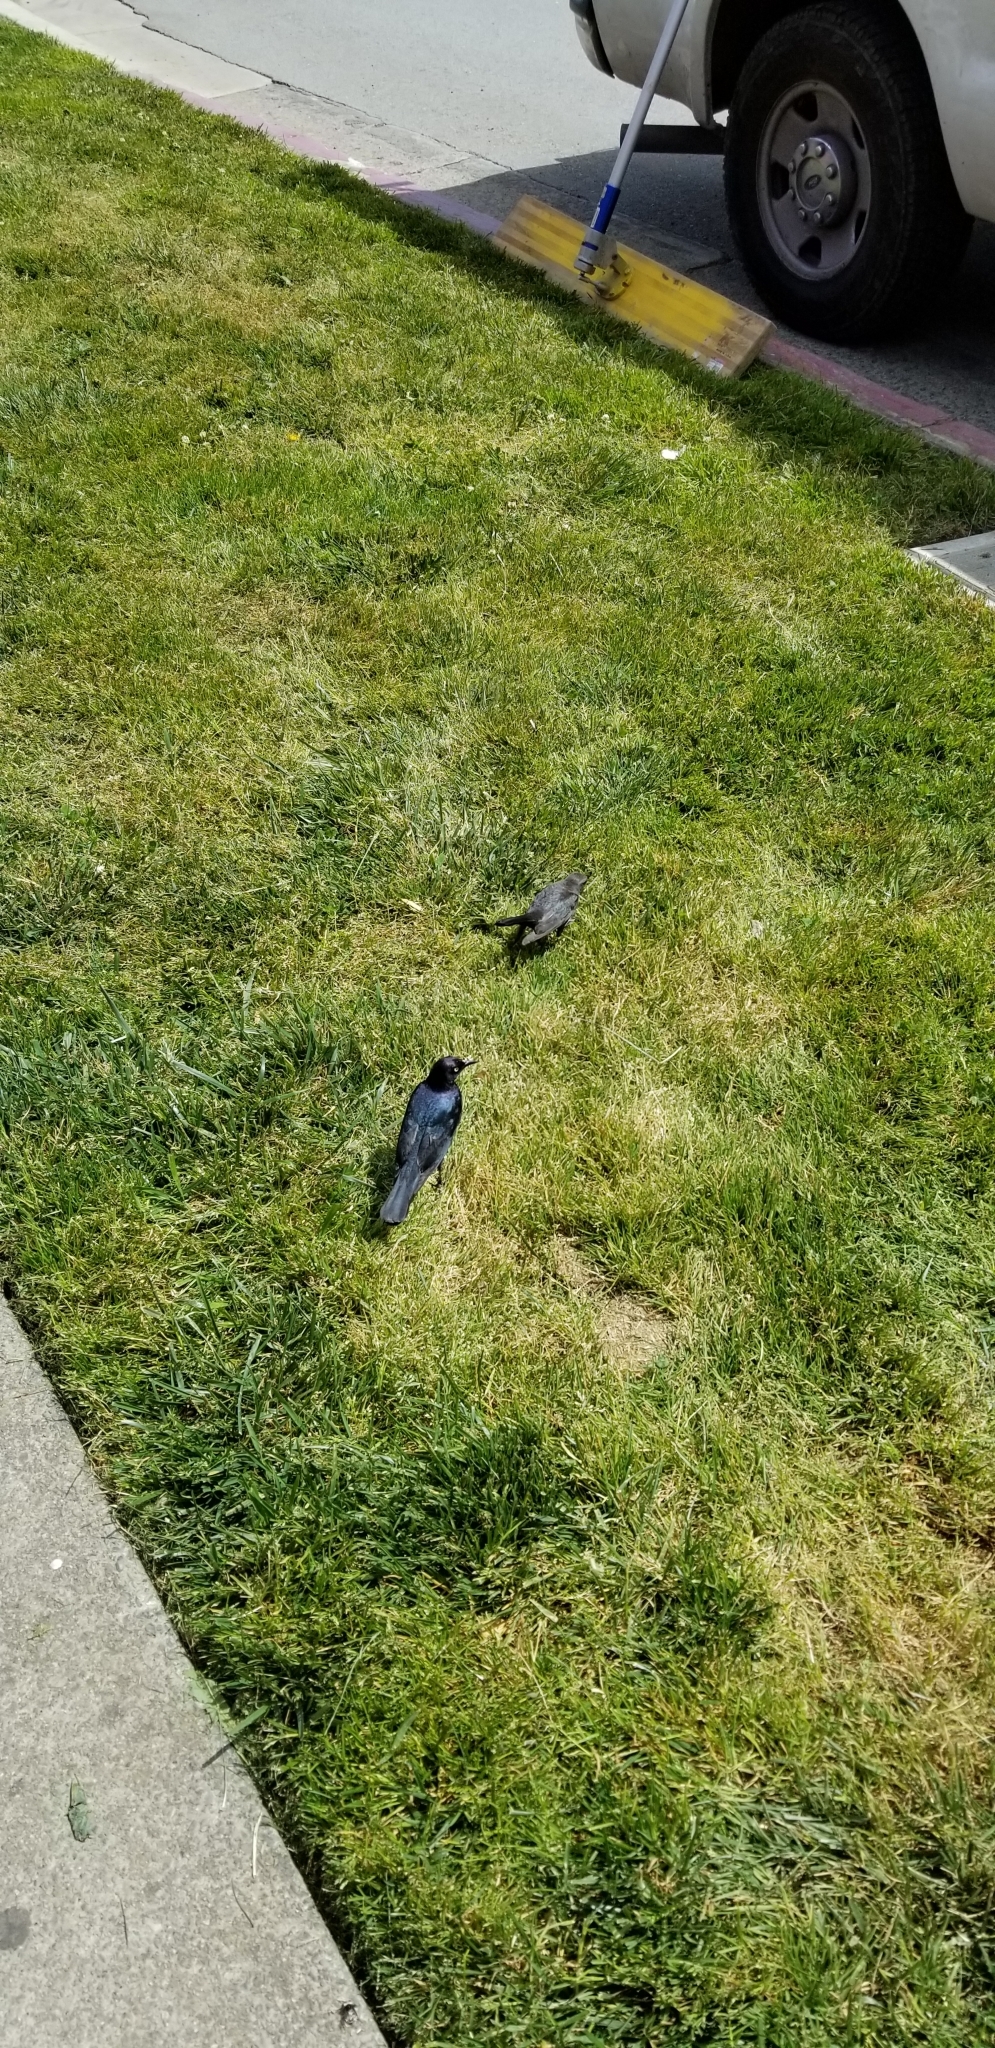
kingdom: Animalia
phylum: Chordata
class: Aves
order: Passeriformes
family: Icteridae
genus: Euphagus
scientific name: Euphagus cyanocephalus
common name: Brewer's blackbird
